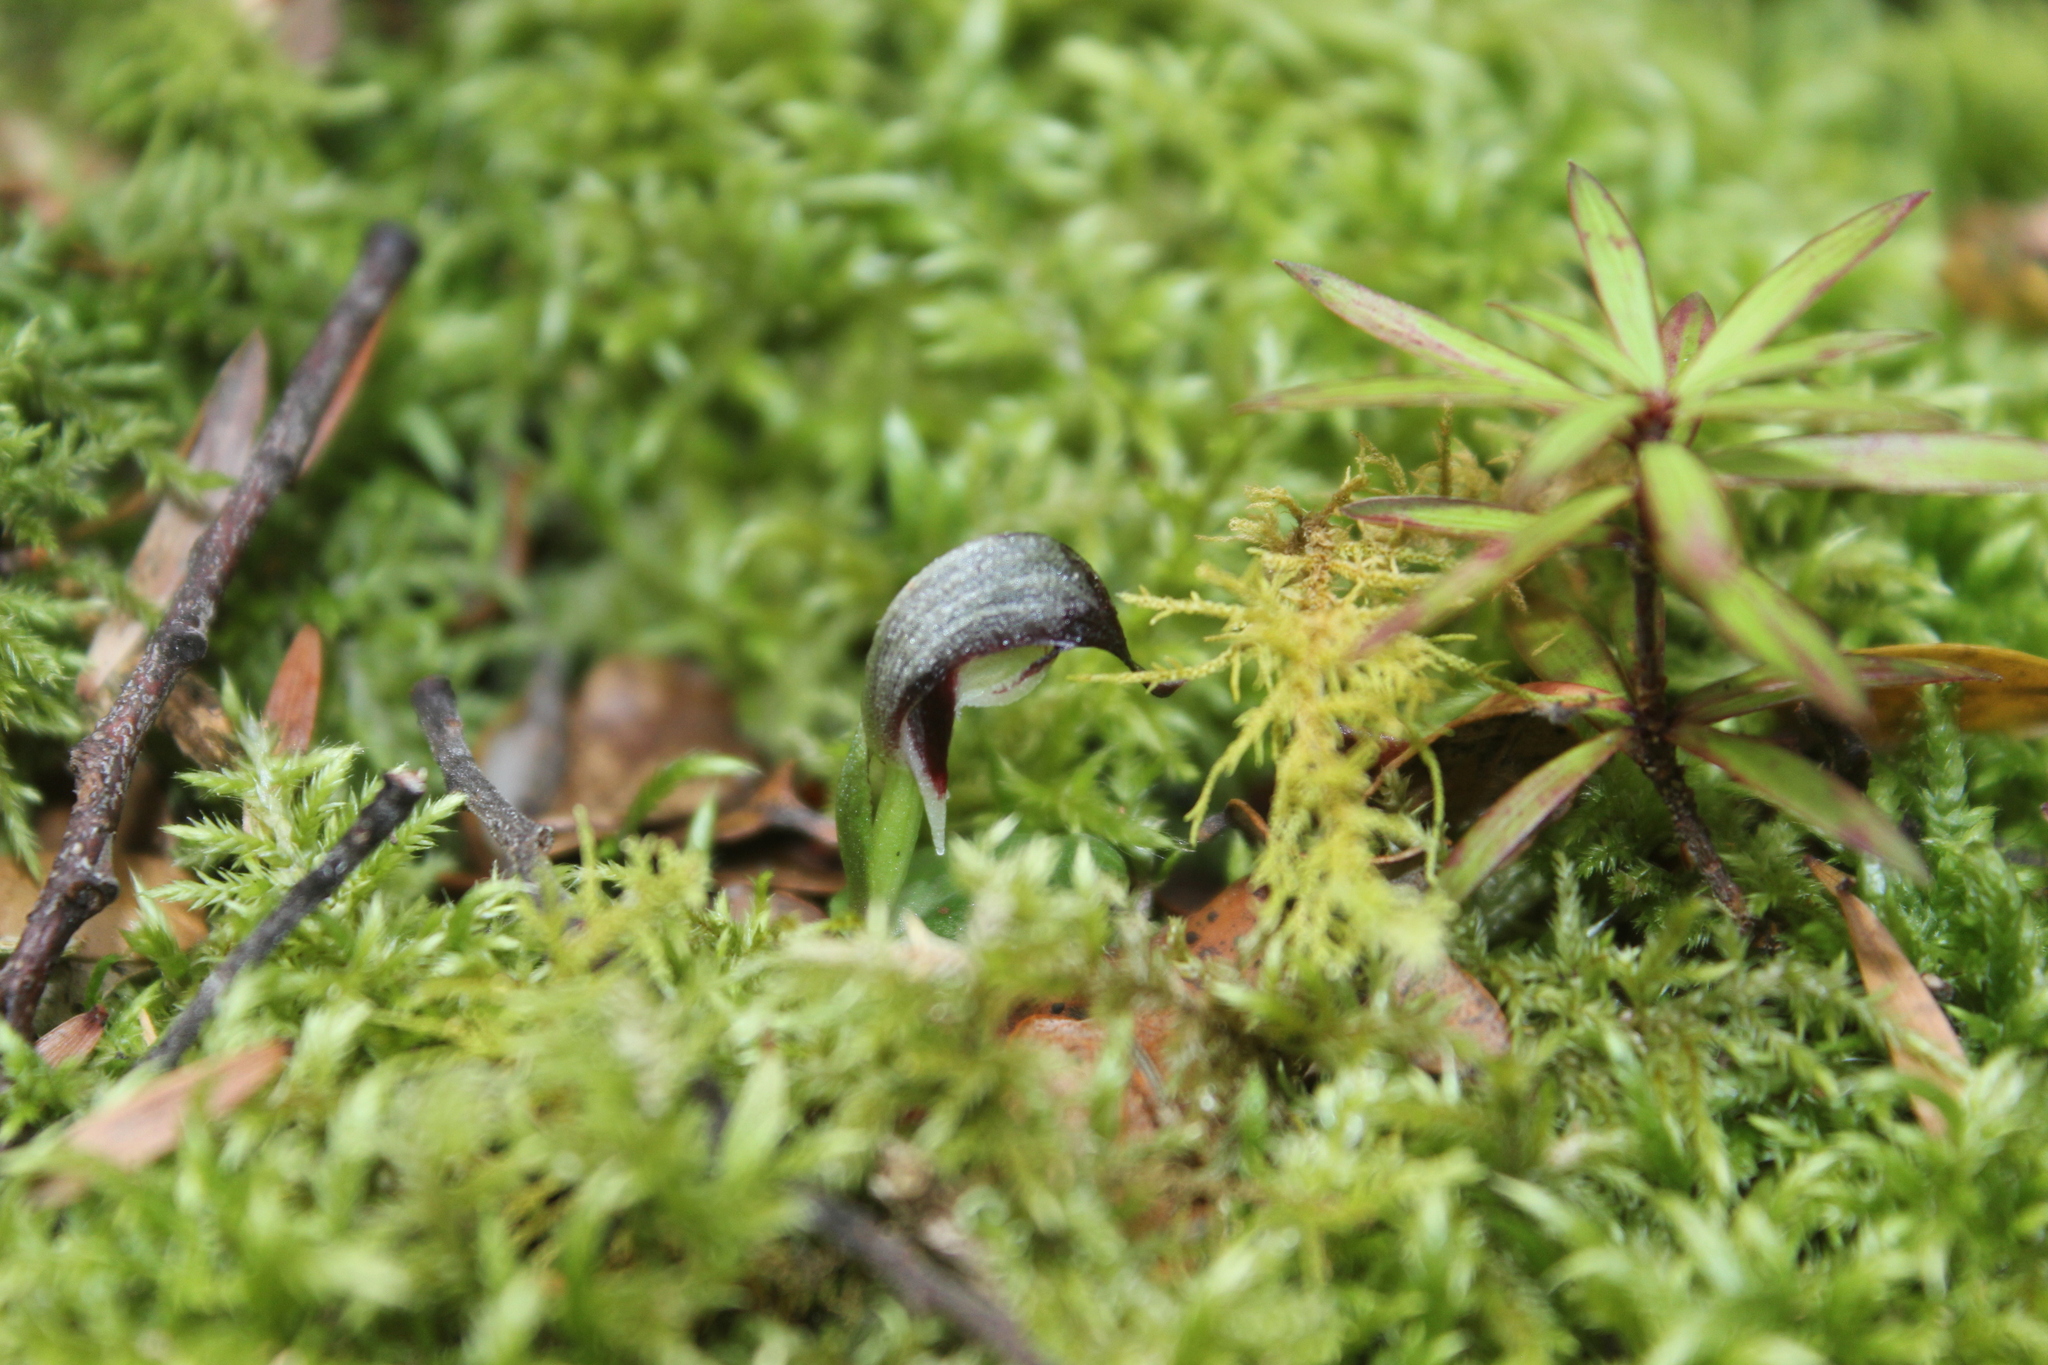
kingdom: Plantae
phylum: Tracheophyta
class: Liliopsida
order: Asparagales
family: Orchidaceae
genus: Corybas
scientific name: Corybas cheesemanii
